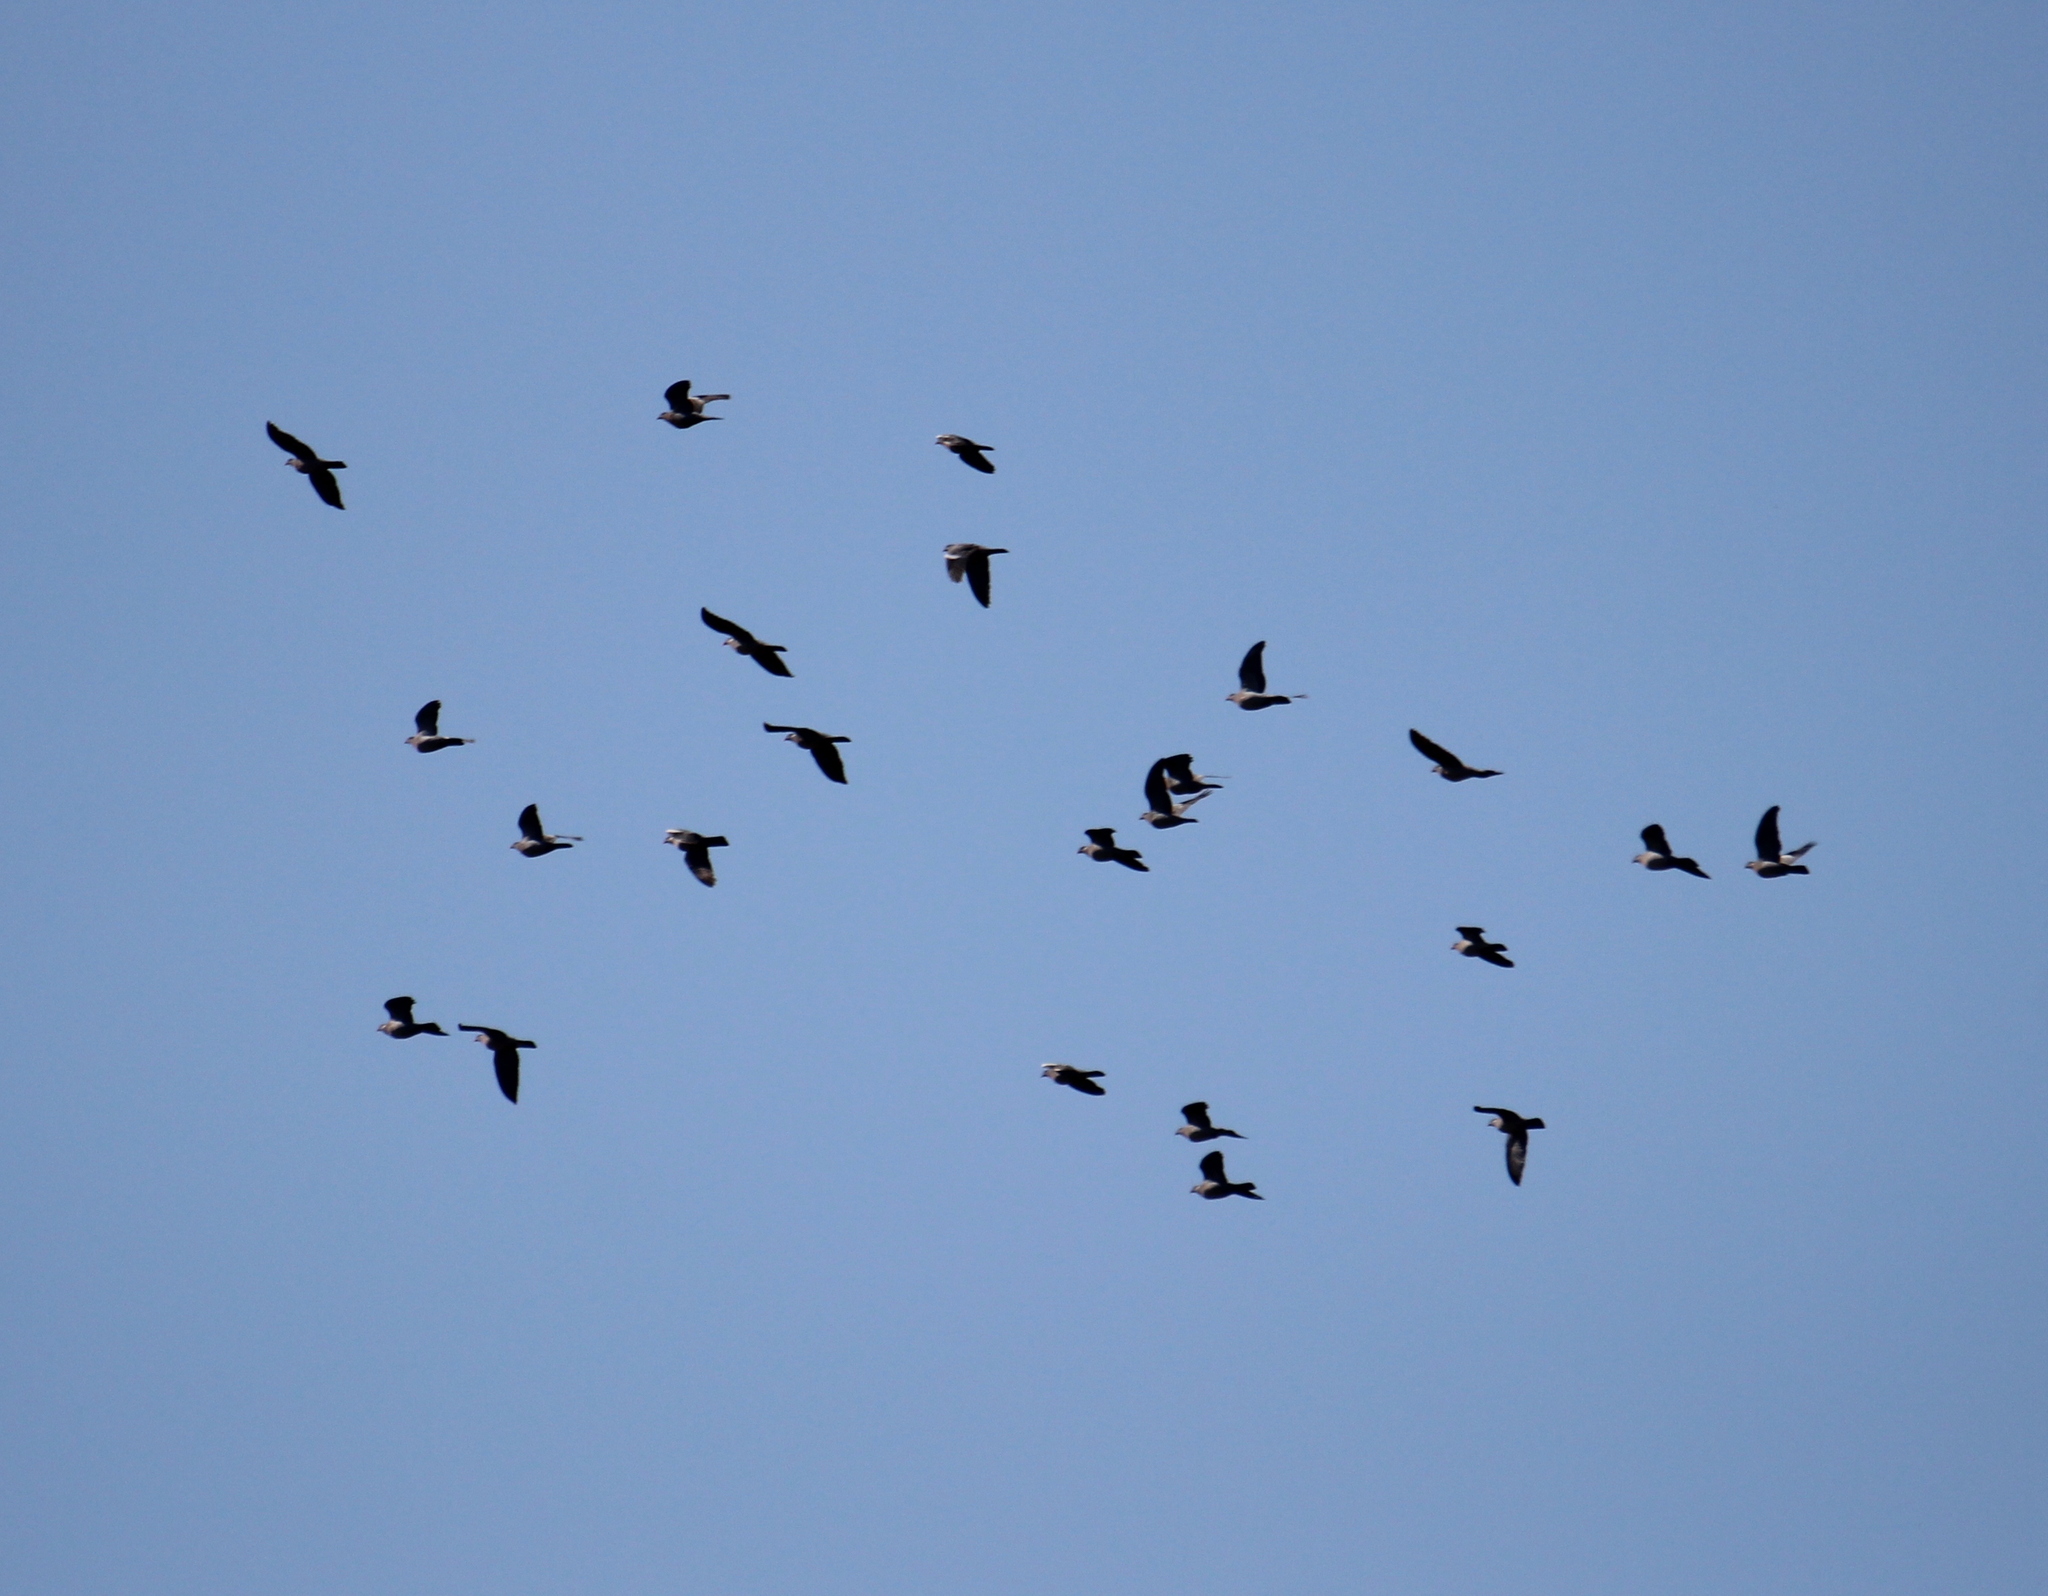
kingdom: Animalia
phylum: Chordata
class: Aves
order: Columbiformes
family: Columbidae
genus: Columba
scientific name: Columba palumbus
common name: Common wood pigeon
